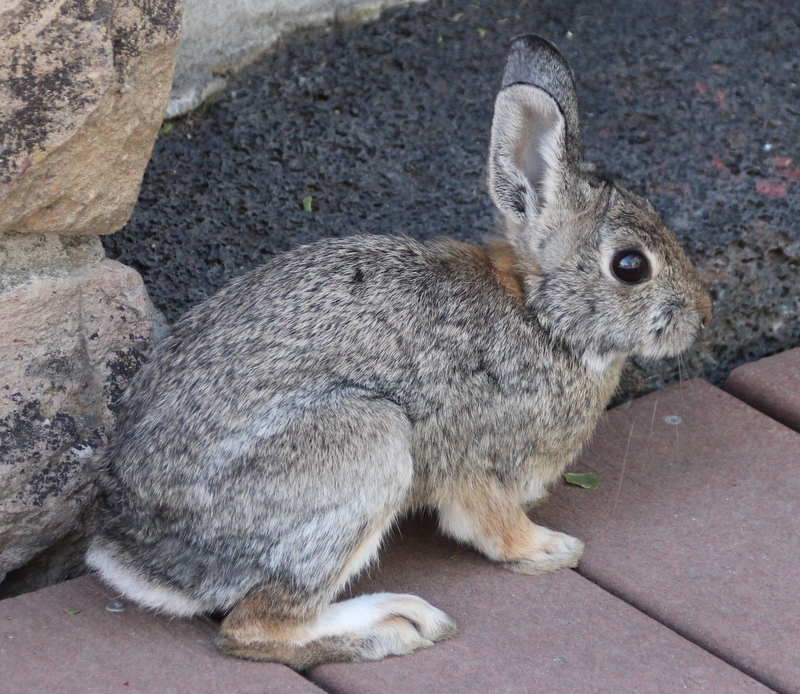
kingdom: Animalia
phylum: Chordata
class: Mammalia
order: Lagomorpha
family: Leporidae
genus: Sylvilagus
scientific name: Sylvilagus nuttallii
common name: Mountain cottontail
